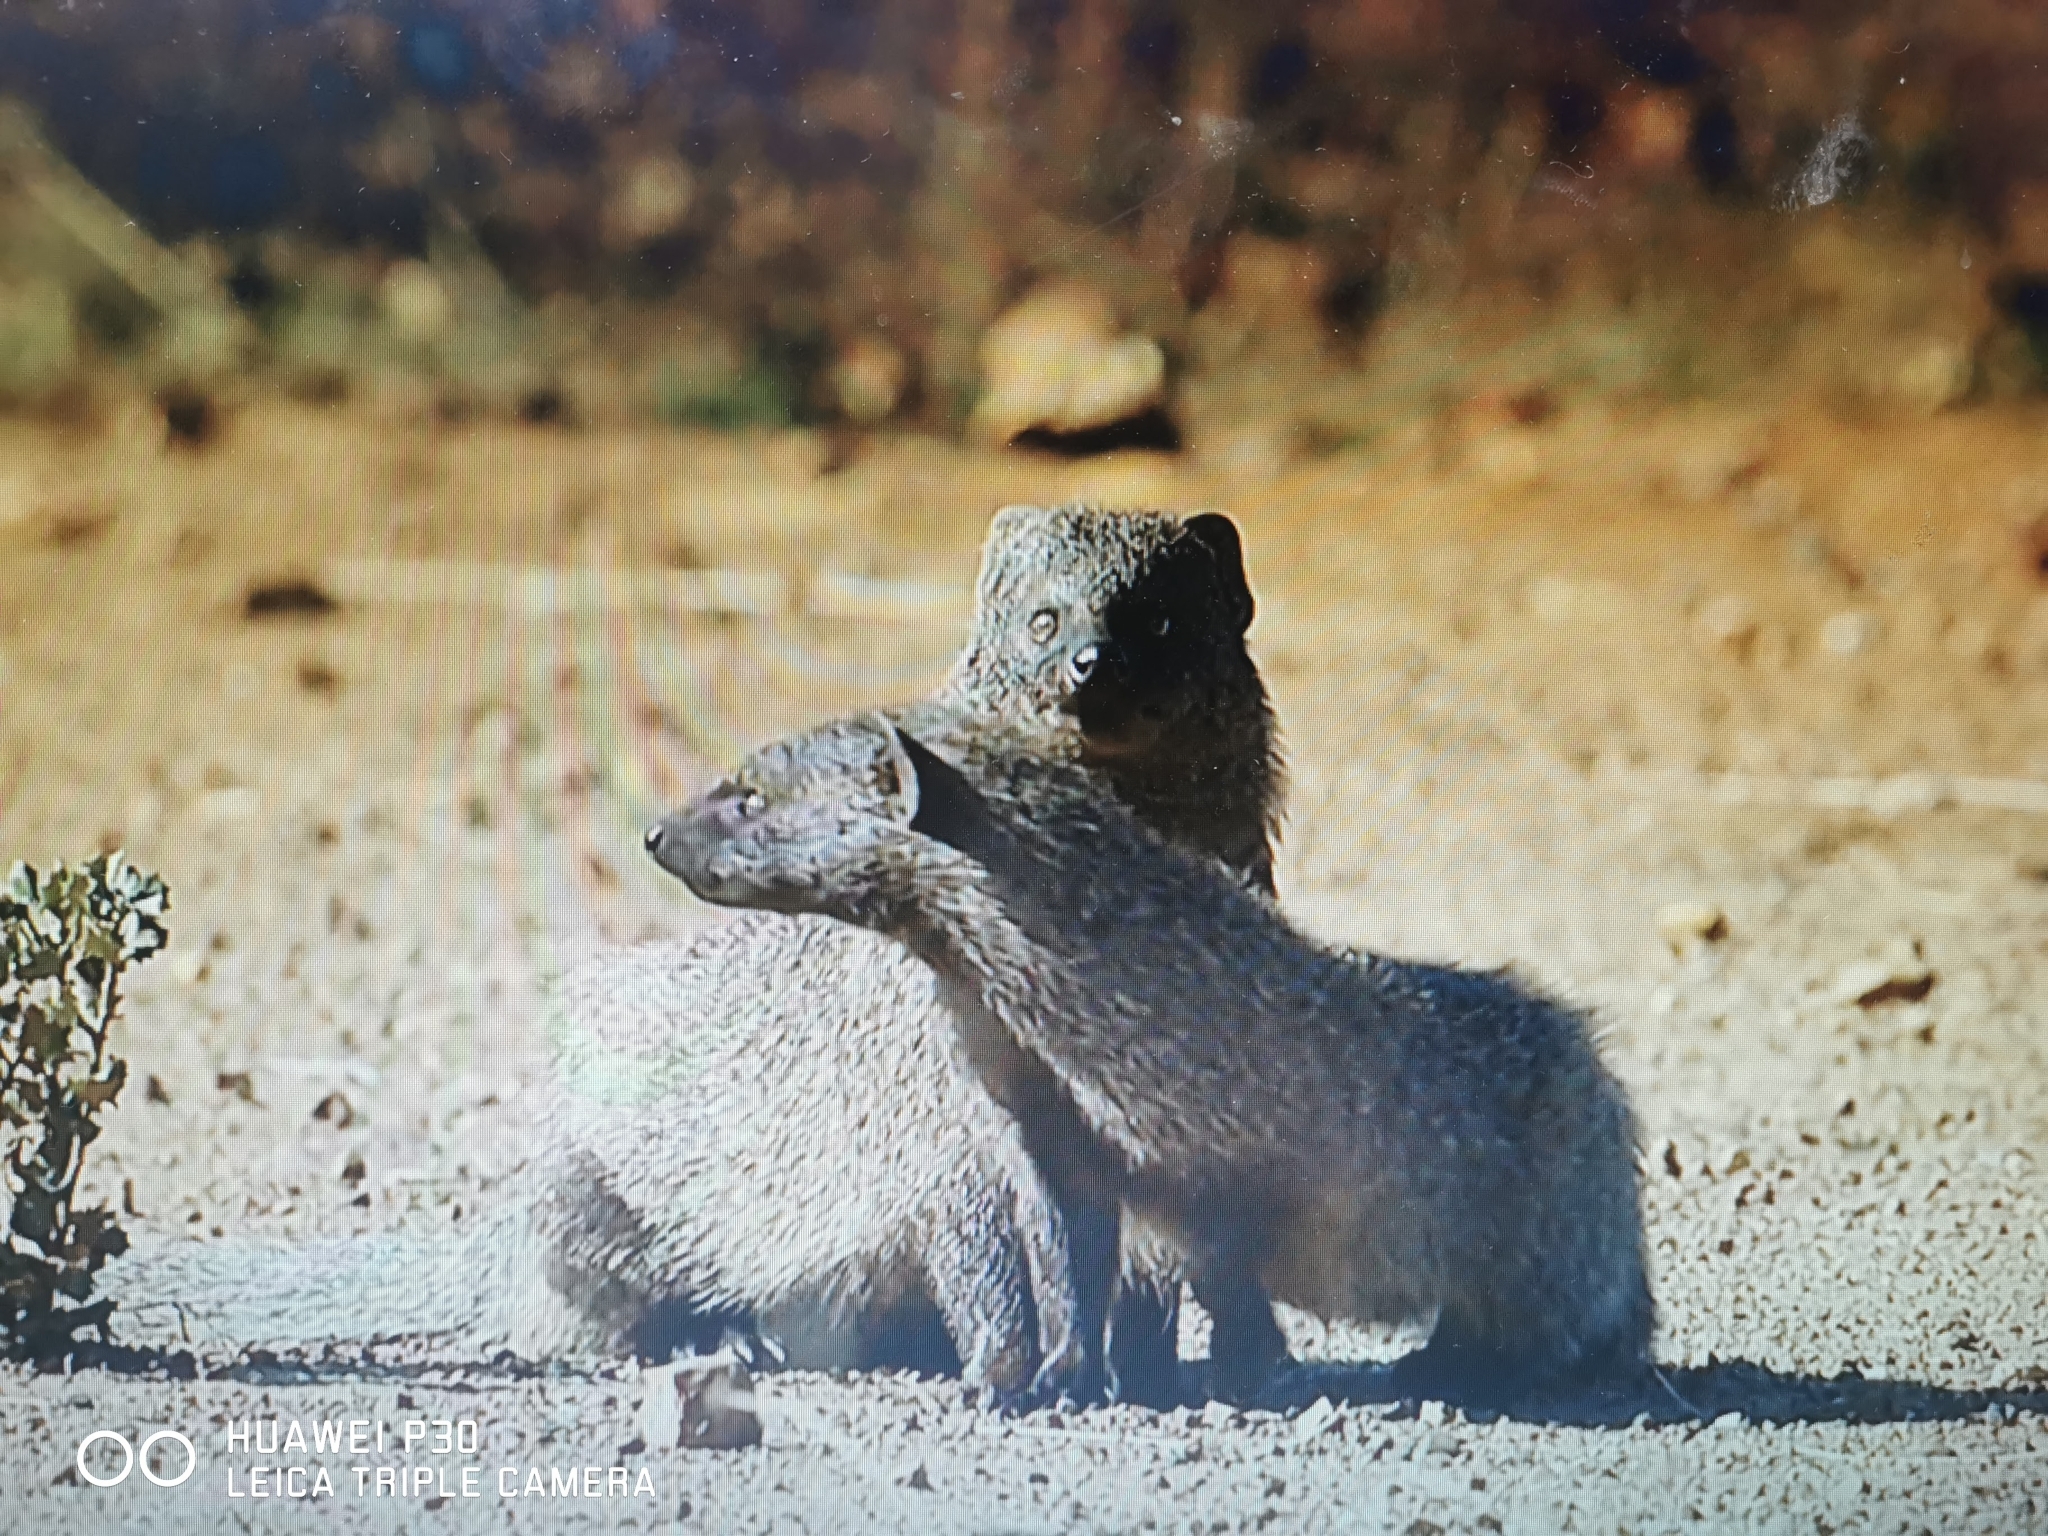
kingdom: Animalia
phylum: Chordata
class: Mammalia
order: Carnivora
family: Herpestidae
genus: Herpestes
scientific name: Herpestes ichneumon
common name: Egyptian mongoose
